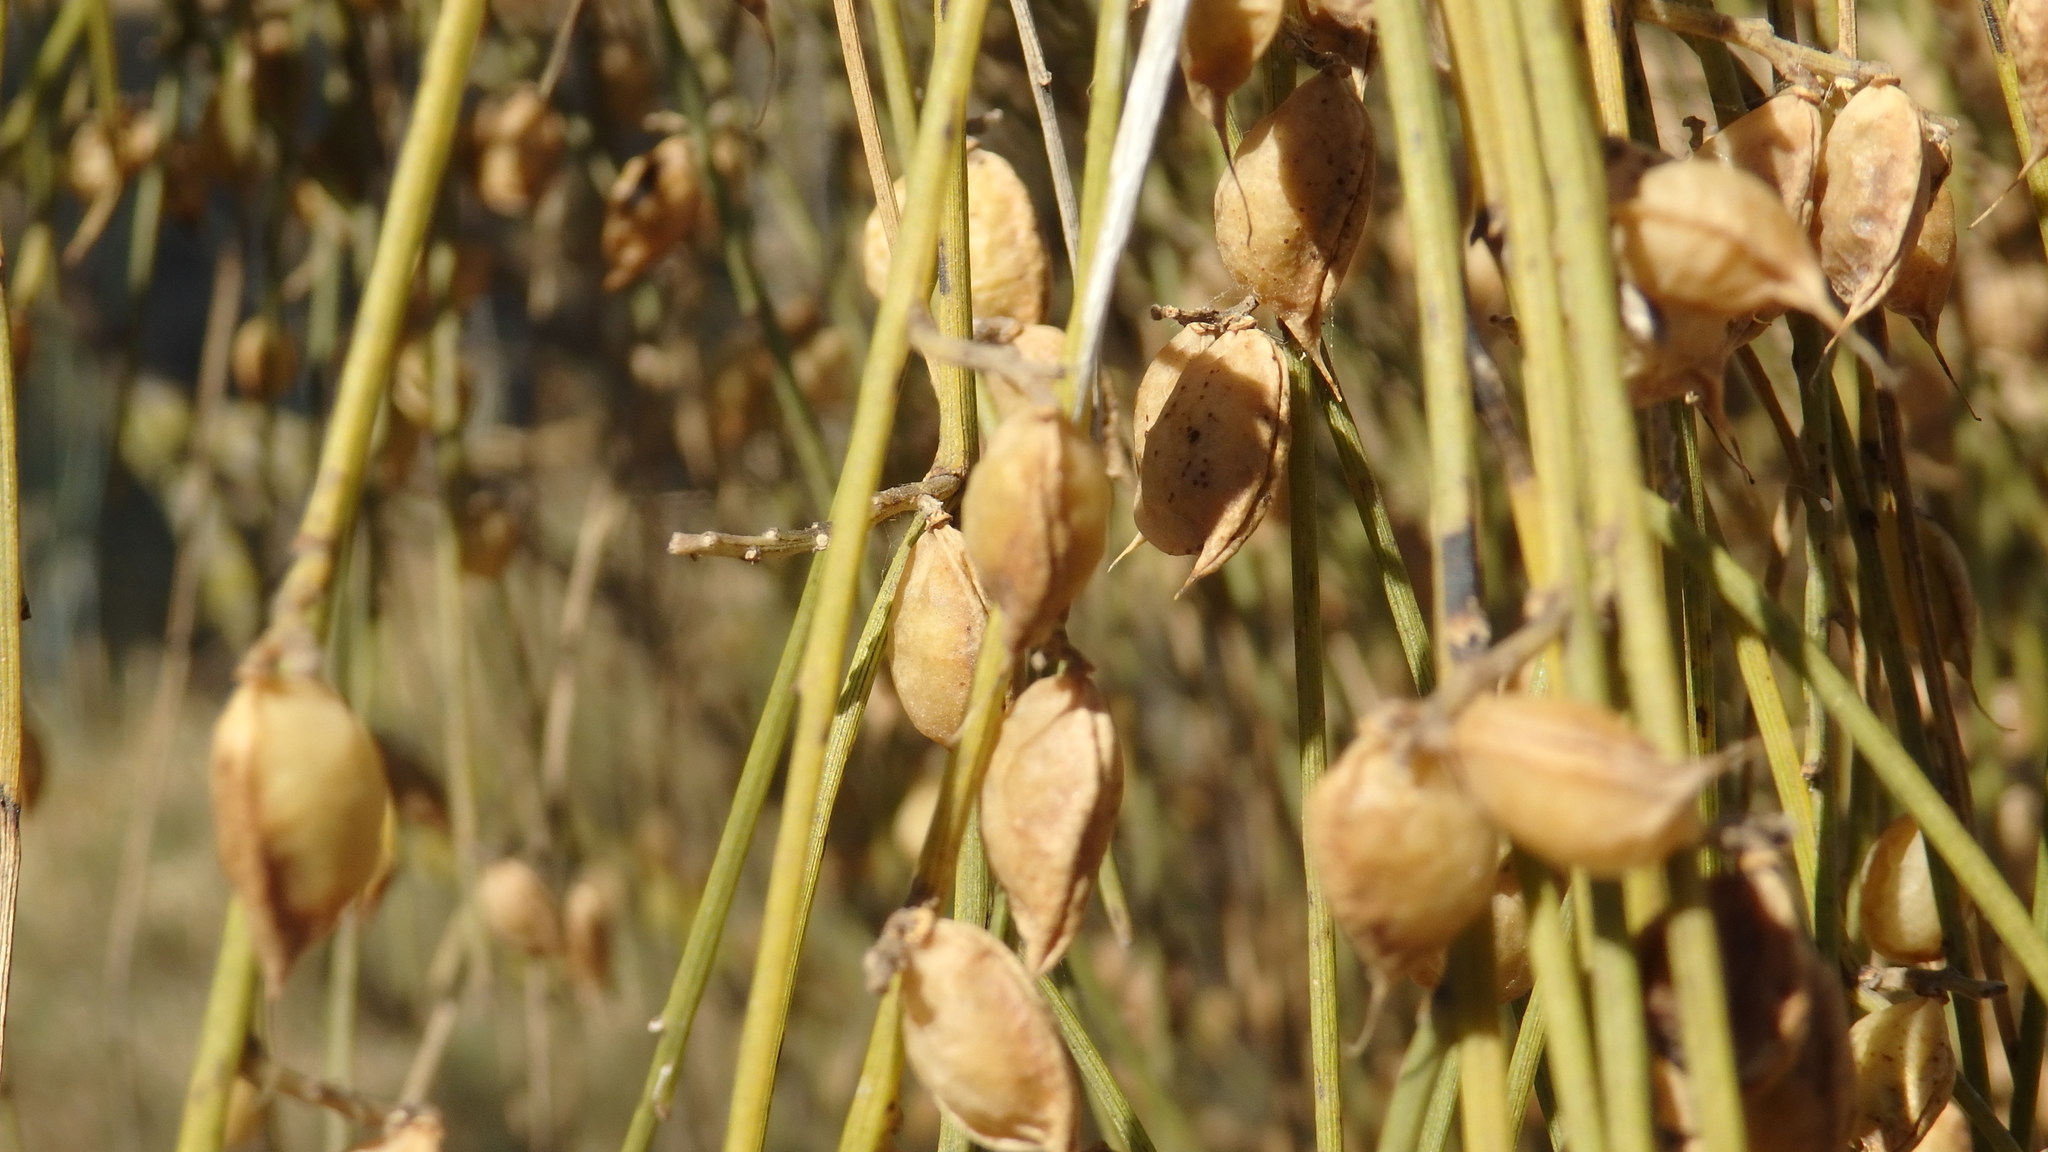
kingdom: Plantae
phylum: Tracheophyta
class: Magnoliopsida
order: Fabales
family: Fabaceae
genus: Retama
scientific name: Retama monosperma
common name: Bridal broom
